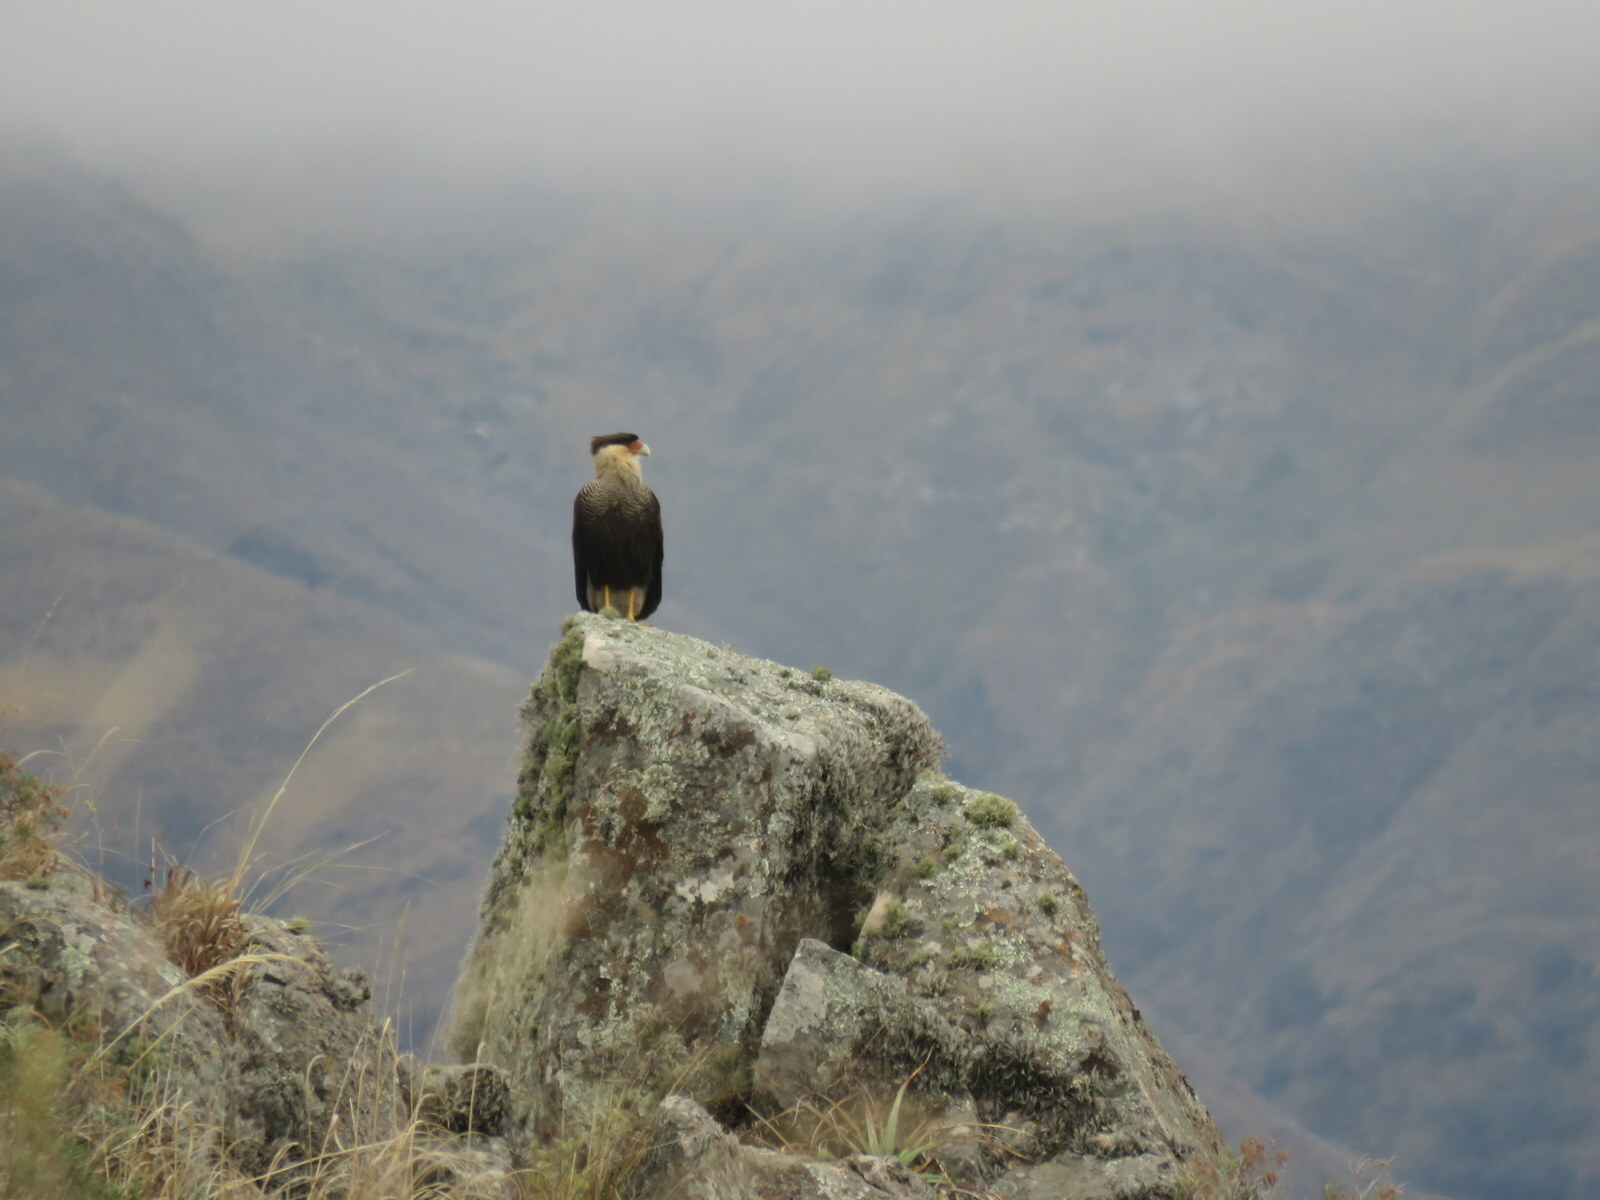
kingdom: Animalia
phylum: Chordata
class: Aves
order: Falconiformes
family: Falconidae
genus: Caracara
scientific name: Caracara plancus
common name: Southern caracara
